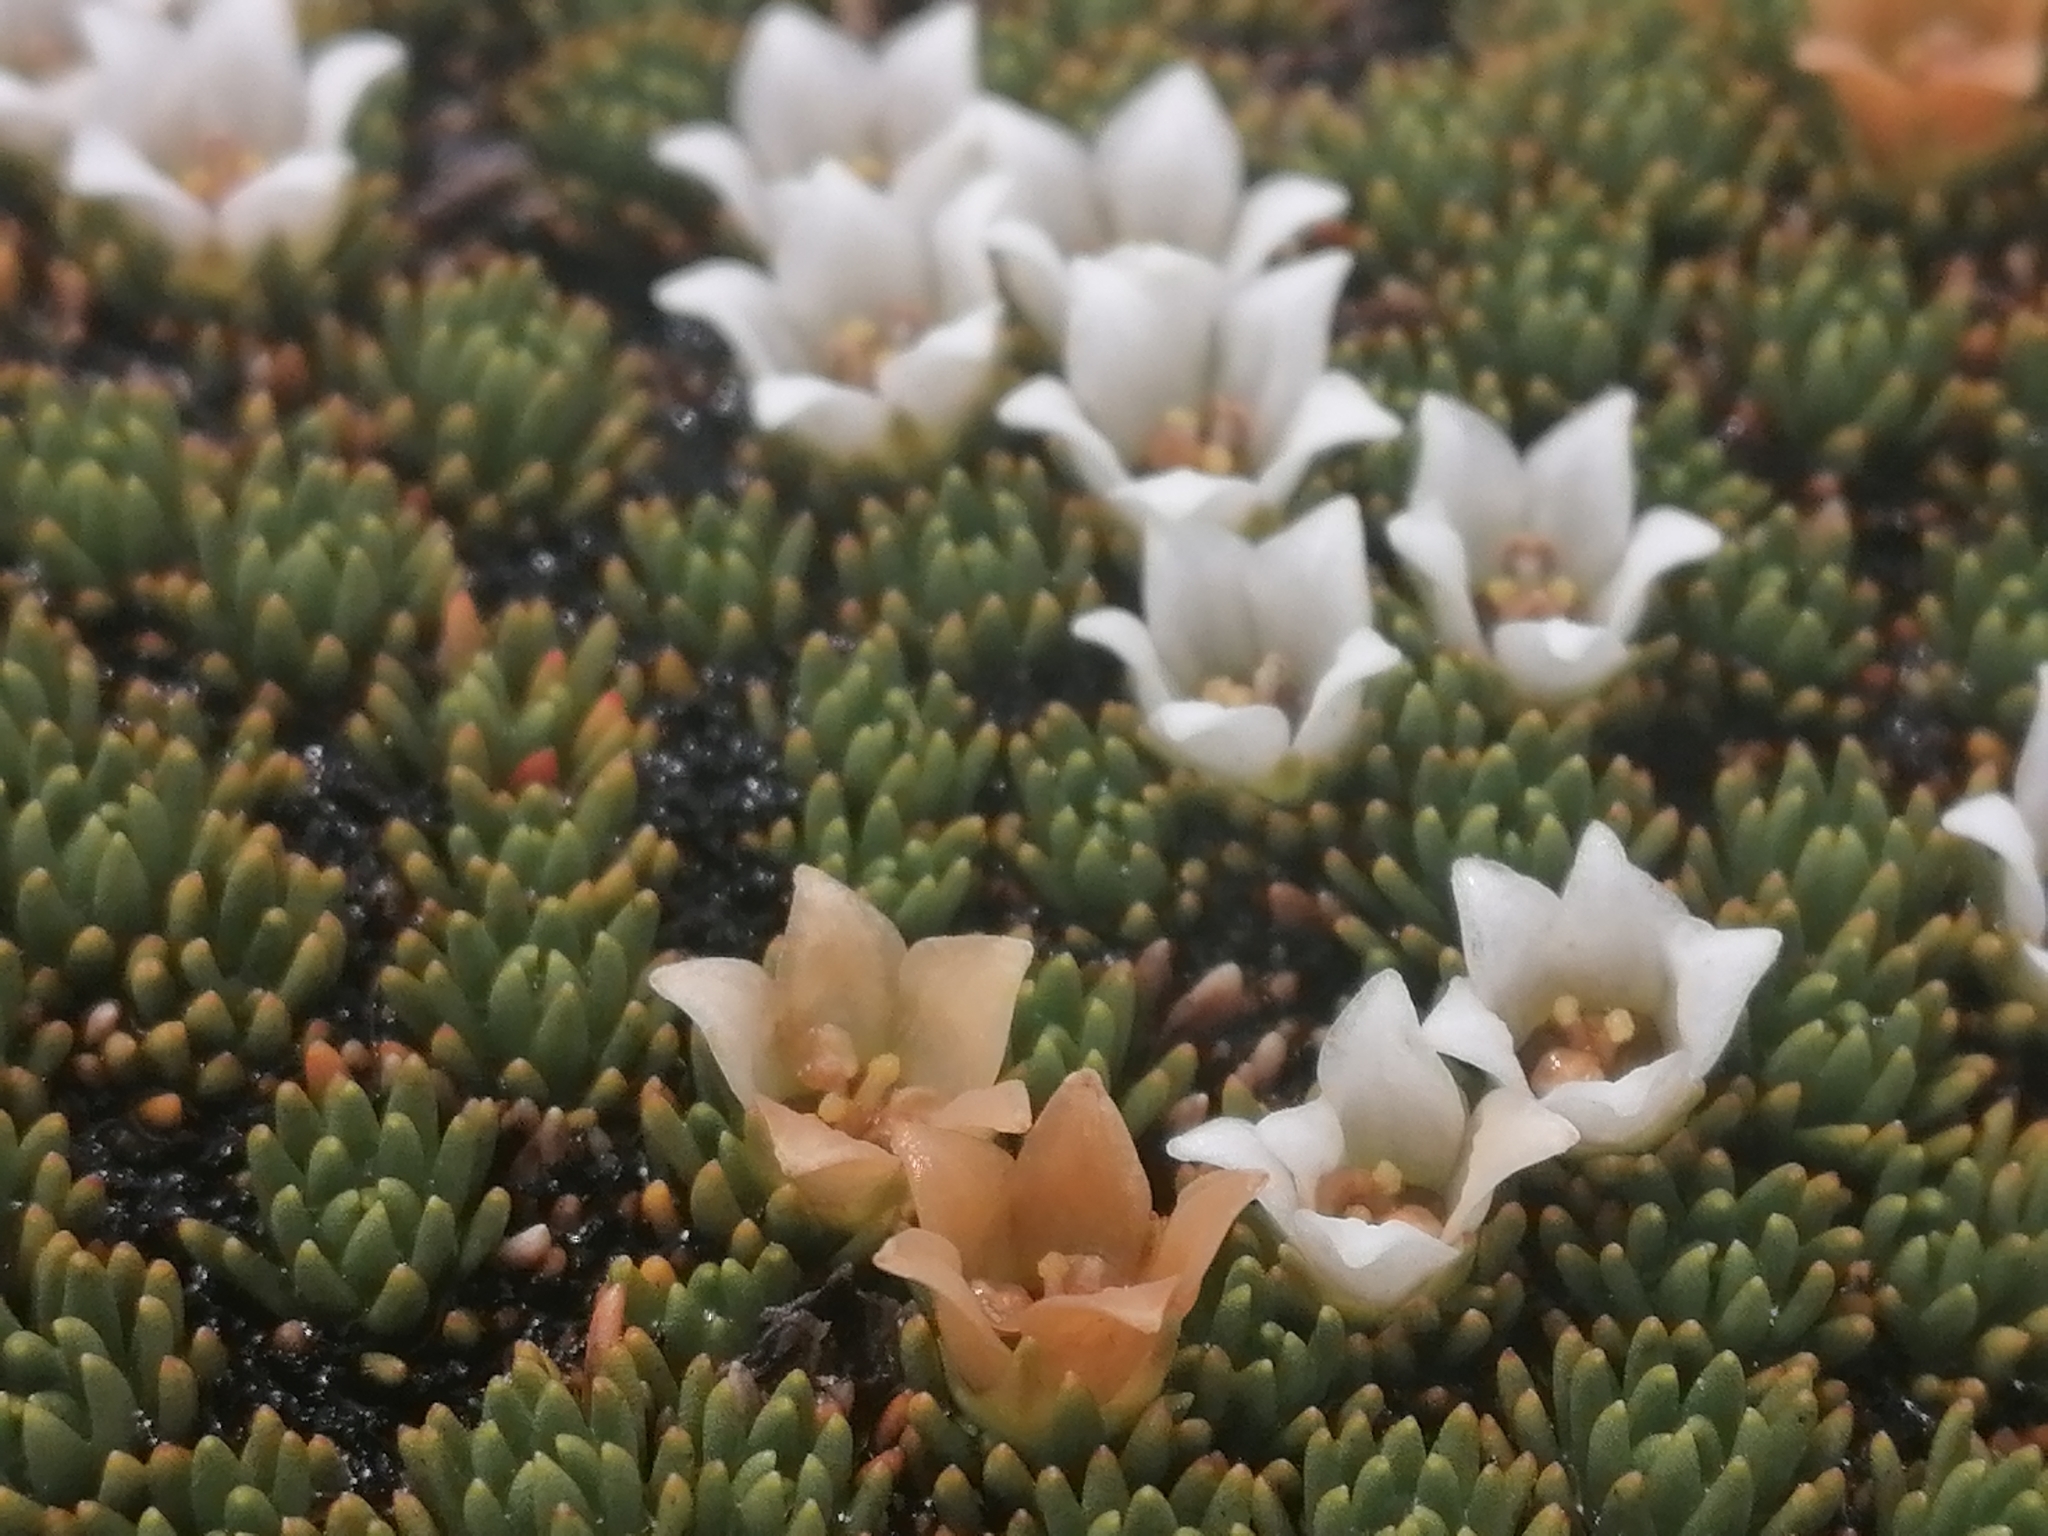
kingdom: Plantae
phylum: Tracheophyta
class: Magnoliopsida
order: Asterales
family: Stylidiaceae
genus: Donatia
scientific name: Donatia novae-zelandiae
